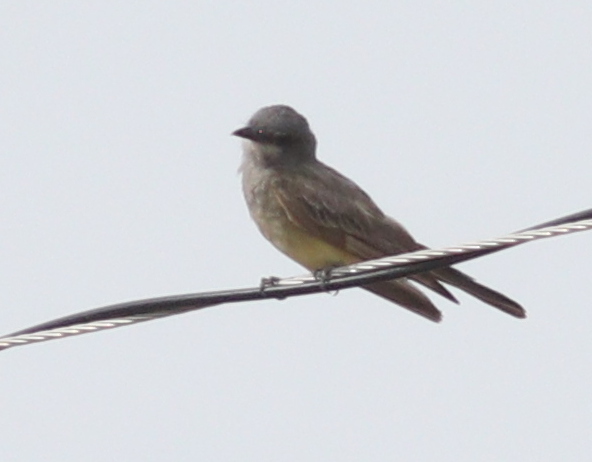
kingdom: Animalia
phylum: Chordata
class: Aves
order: Passeriformes
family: Tyrannidae
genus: Tyrannus
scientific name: Tyrannus vociferans
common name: Cassin's kingbird
